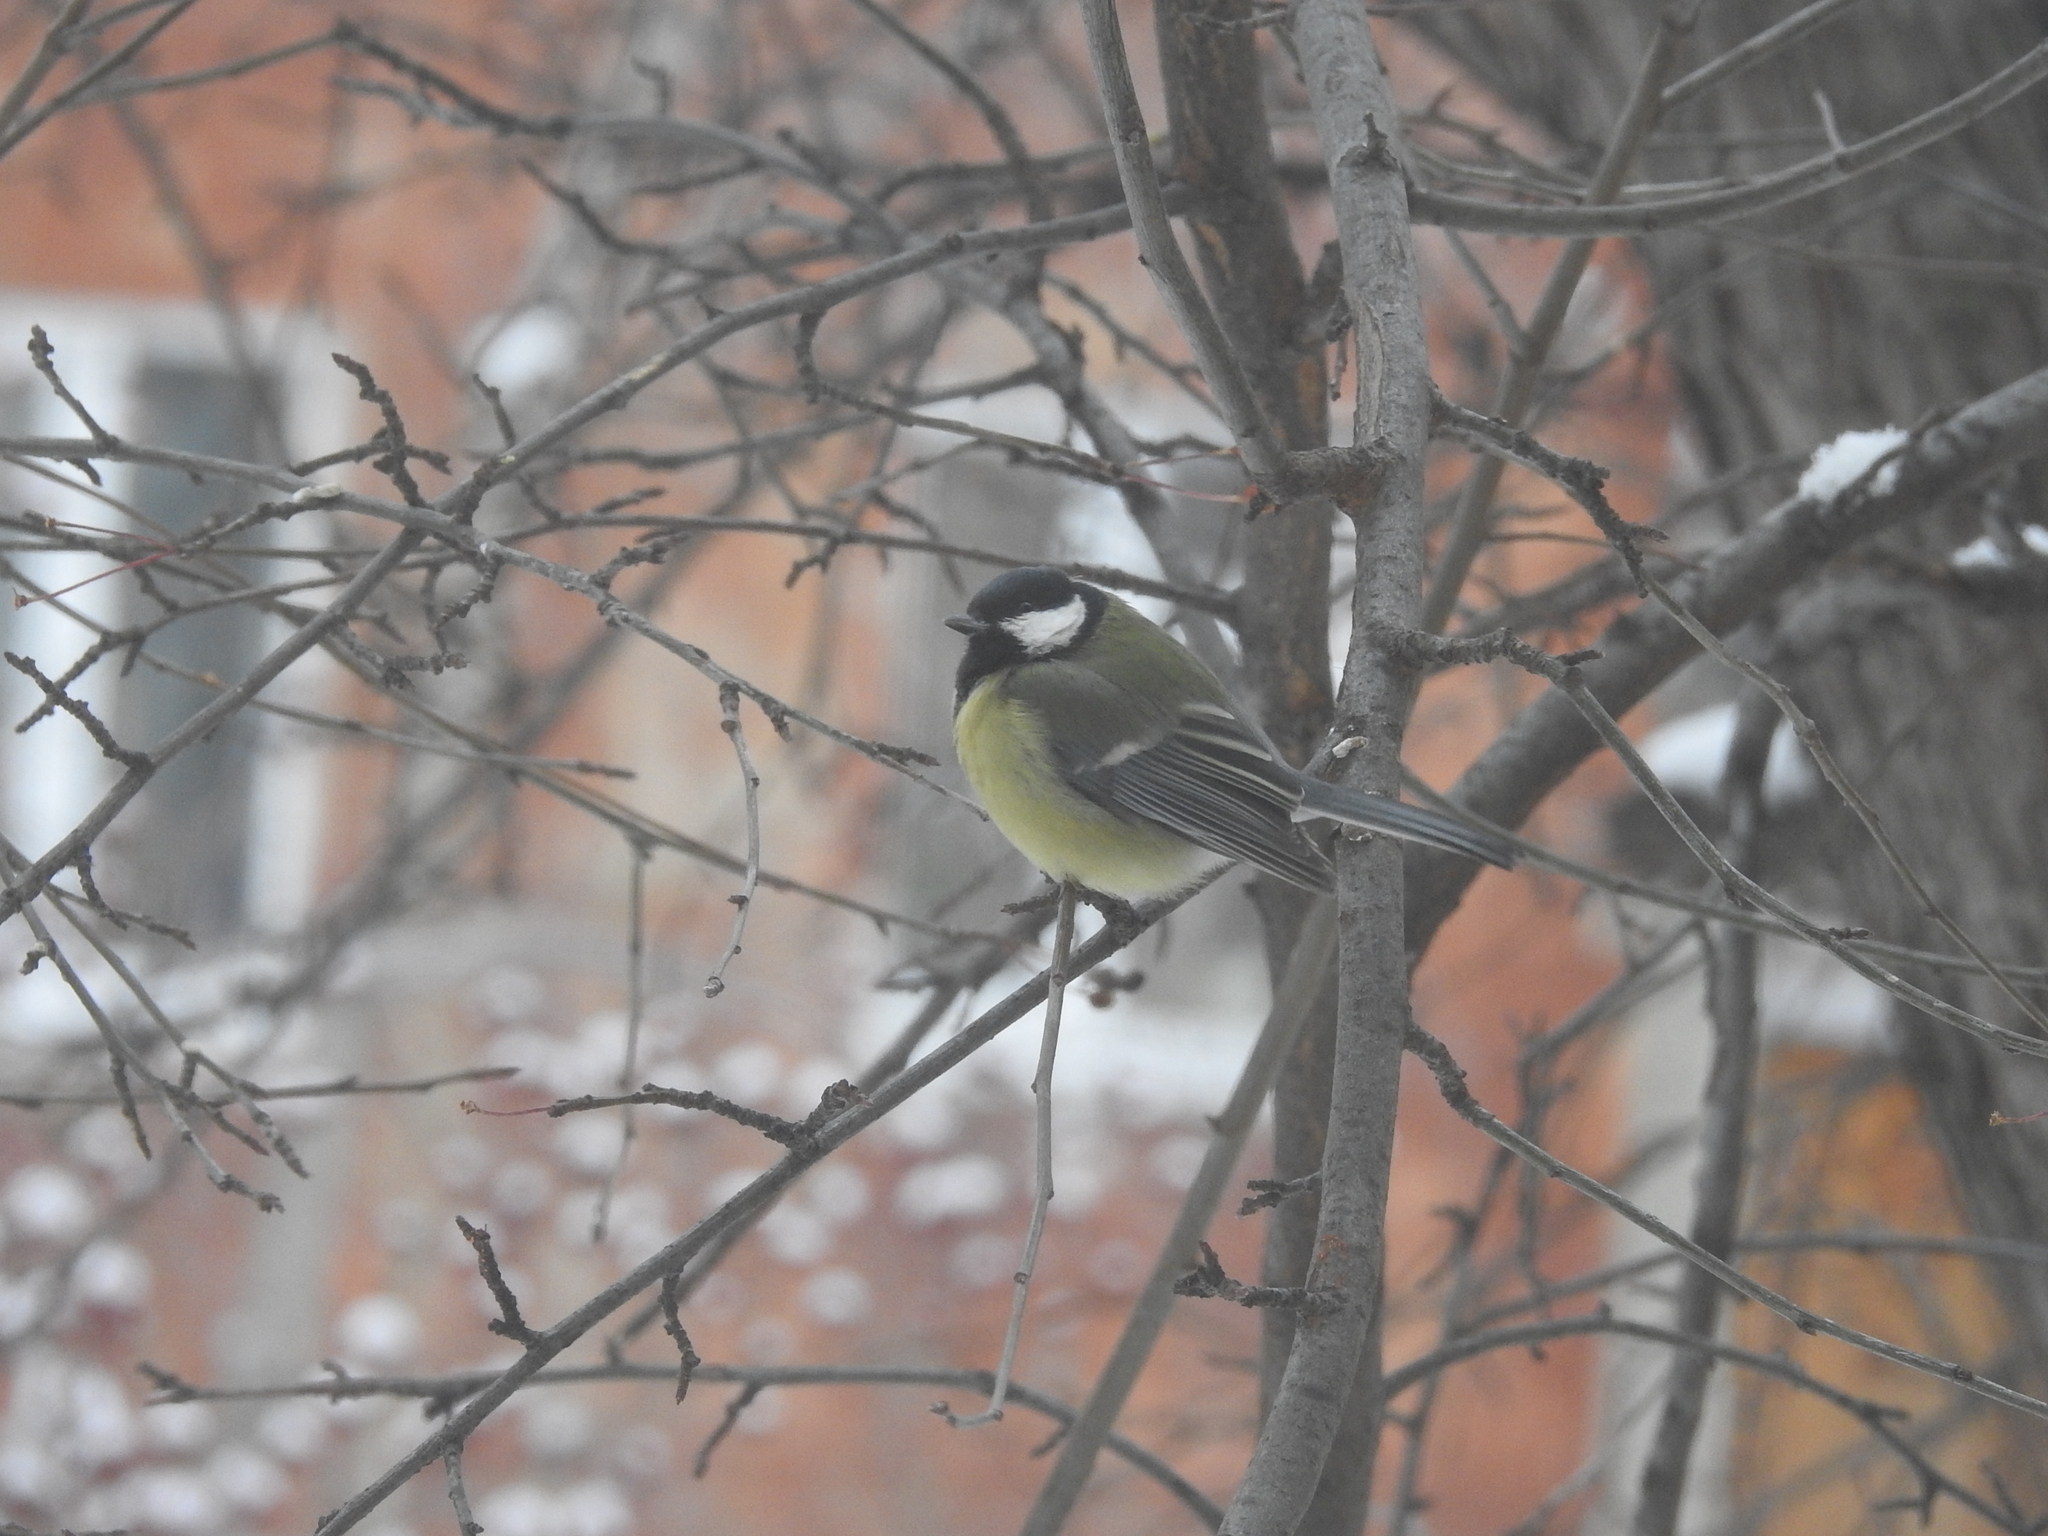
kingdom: Animalia
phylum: Chordata
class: Aves
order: Passeriformes
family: Paridae
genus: Parus
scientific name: Parus major
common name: Great tit
